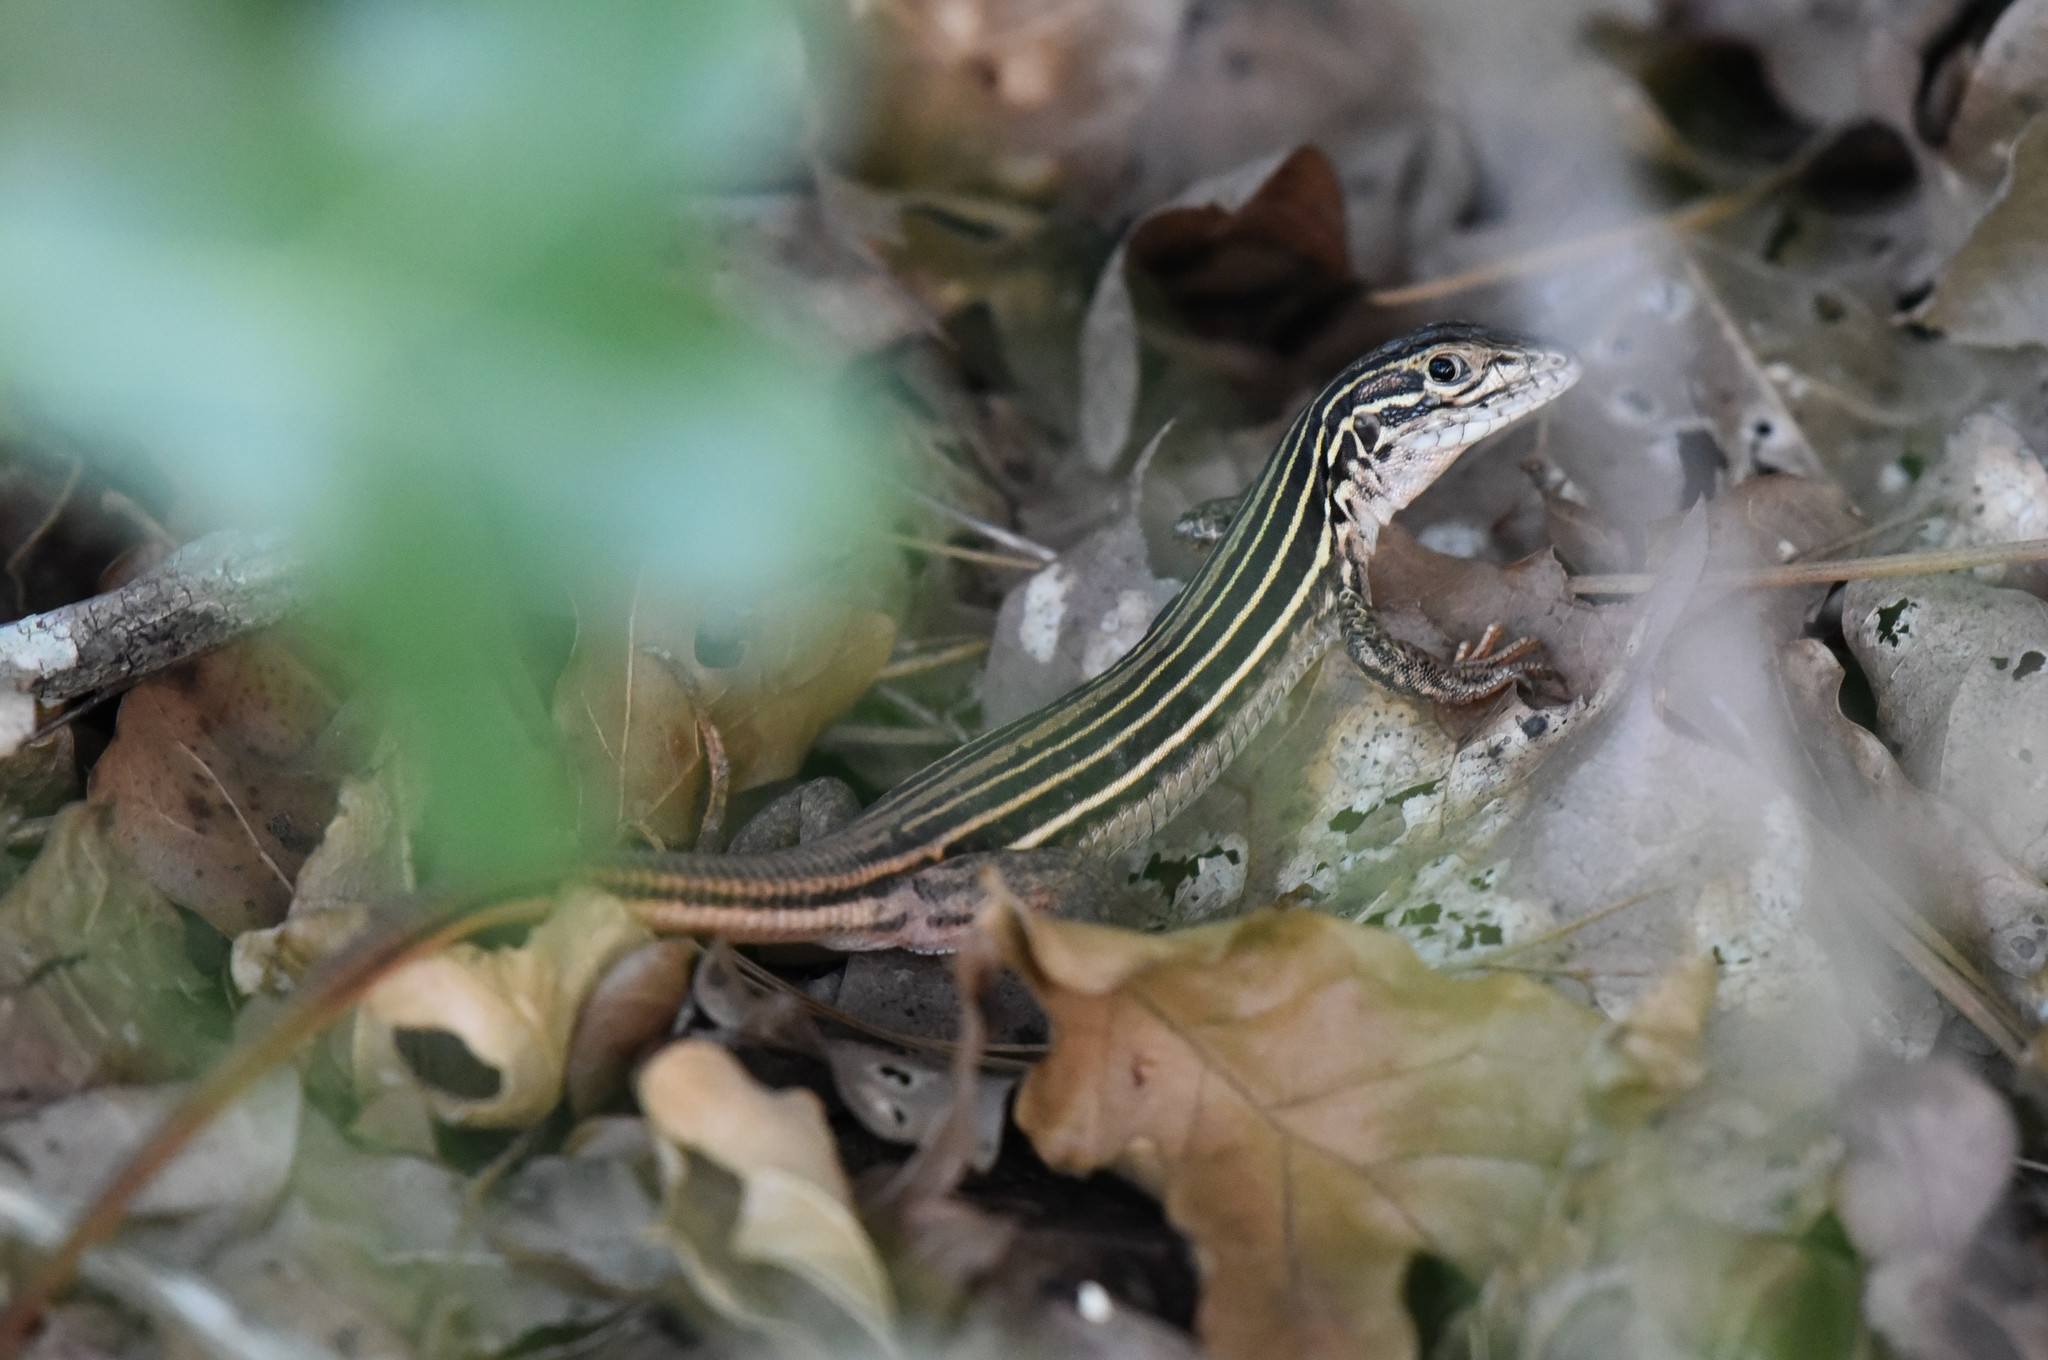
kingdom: Animalia
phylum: Chordata
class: Squamata
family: Teiidae
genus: Aspidoscelis
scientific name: Aspidoscelis gularis
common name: Eastern spotted whiptail
